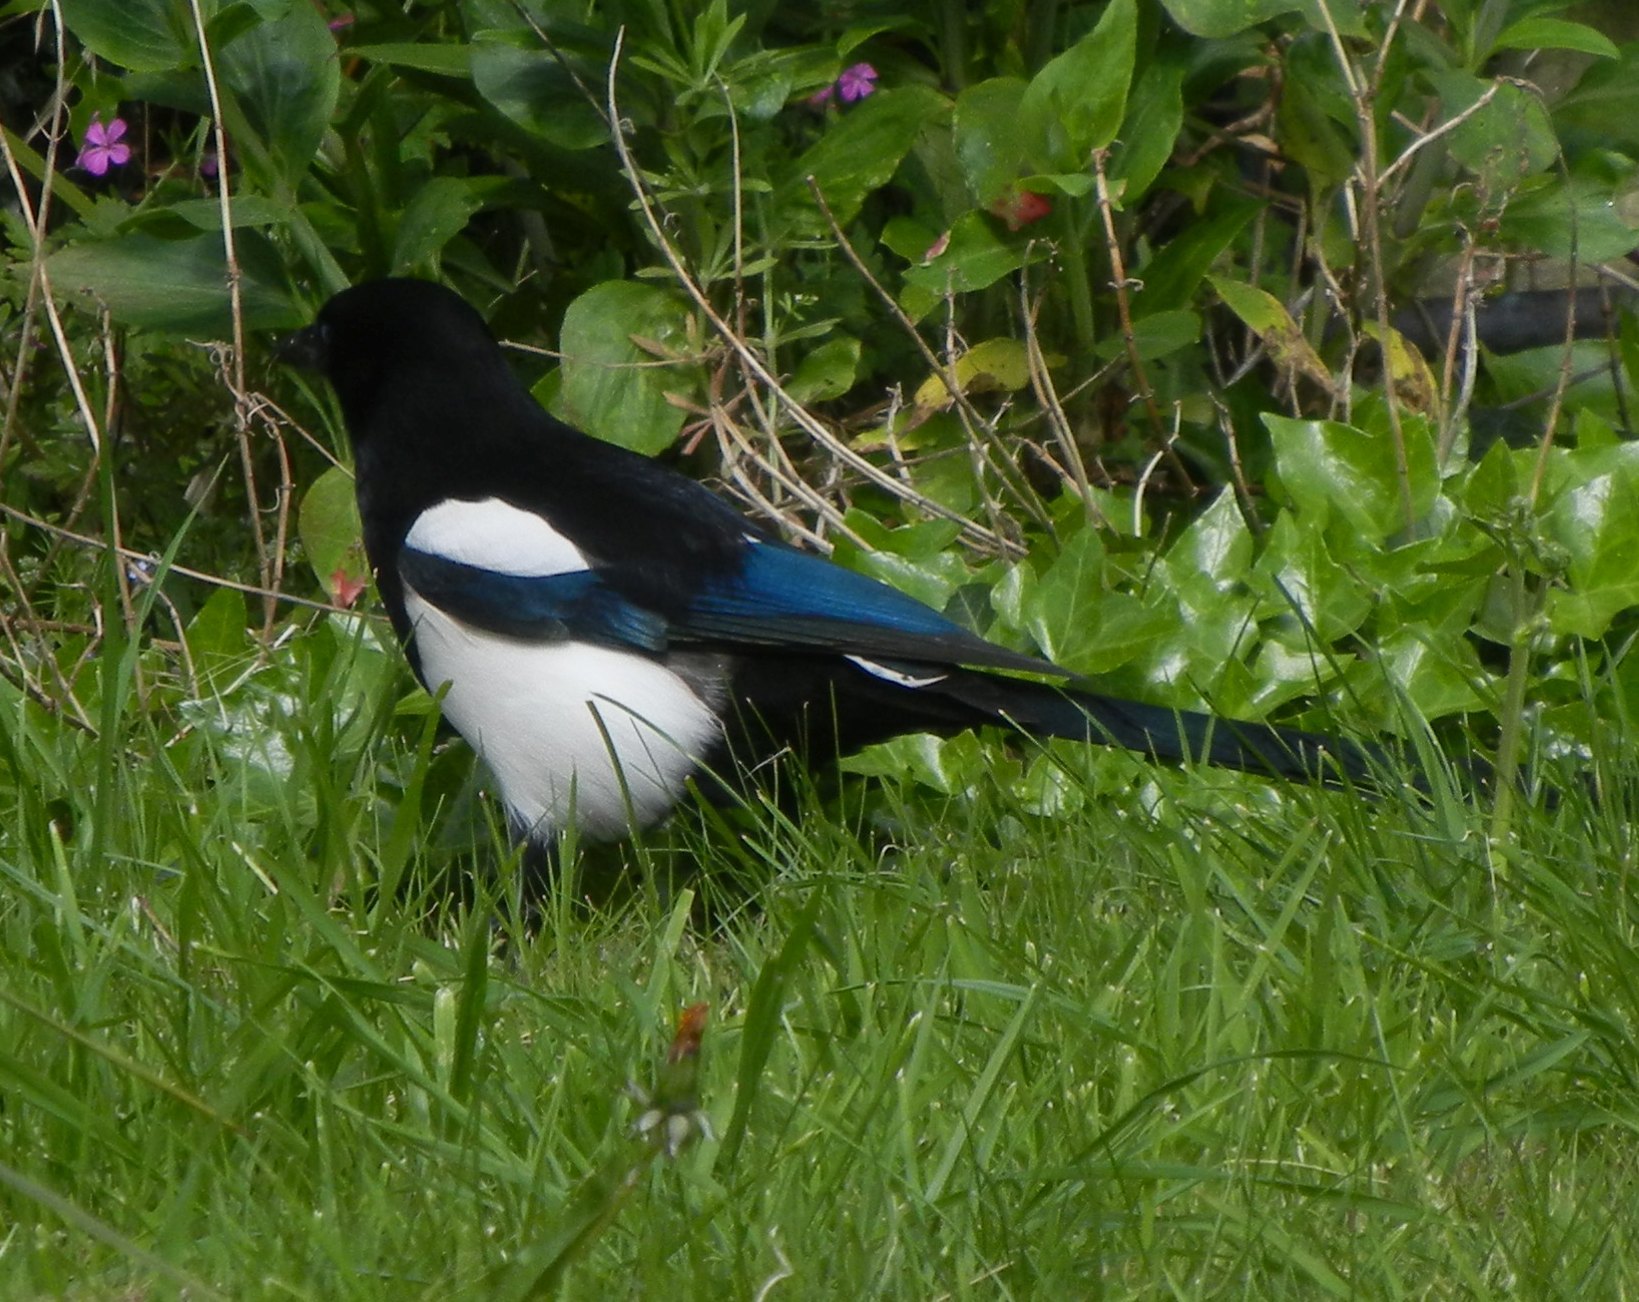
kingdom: Animalia
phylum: Chordata
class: Aves
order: Passeriformes
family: Corvidae
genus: Pica
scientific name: Pica pica
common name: Eurasian magpie
